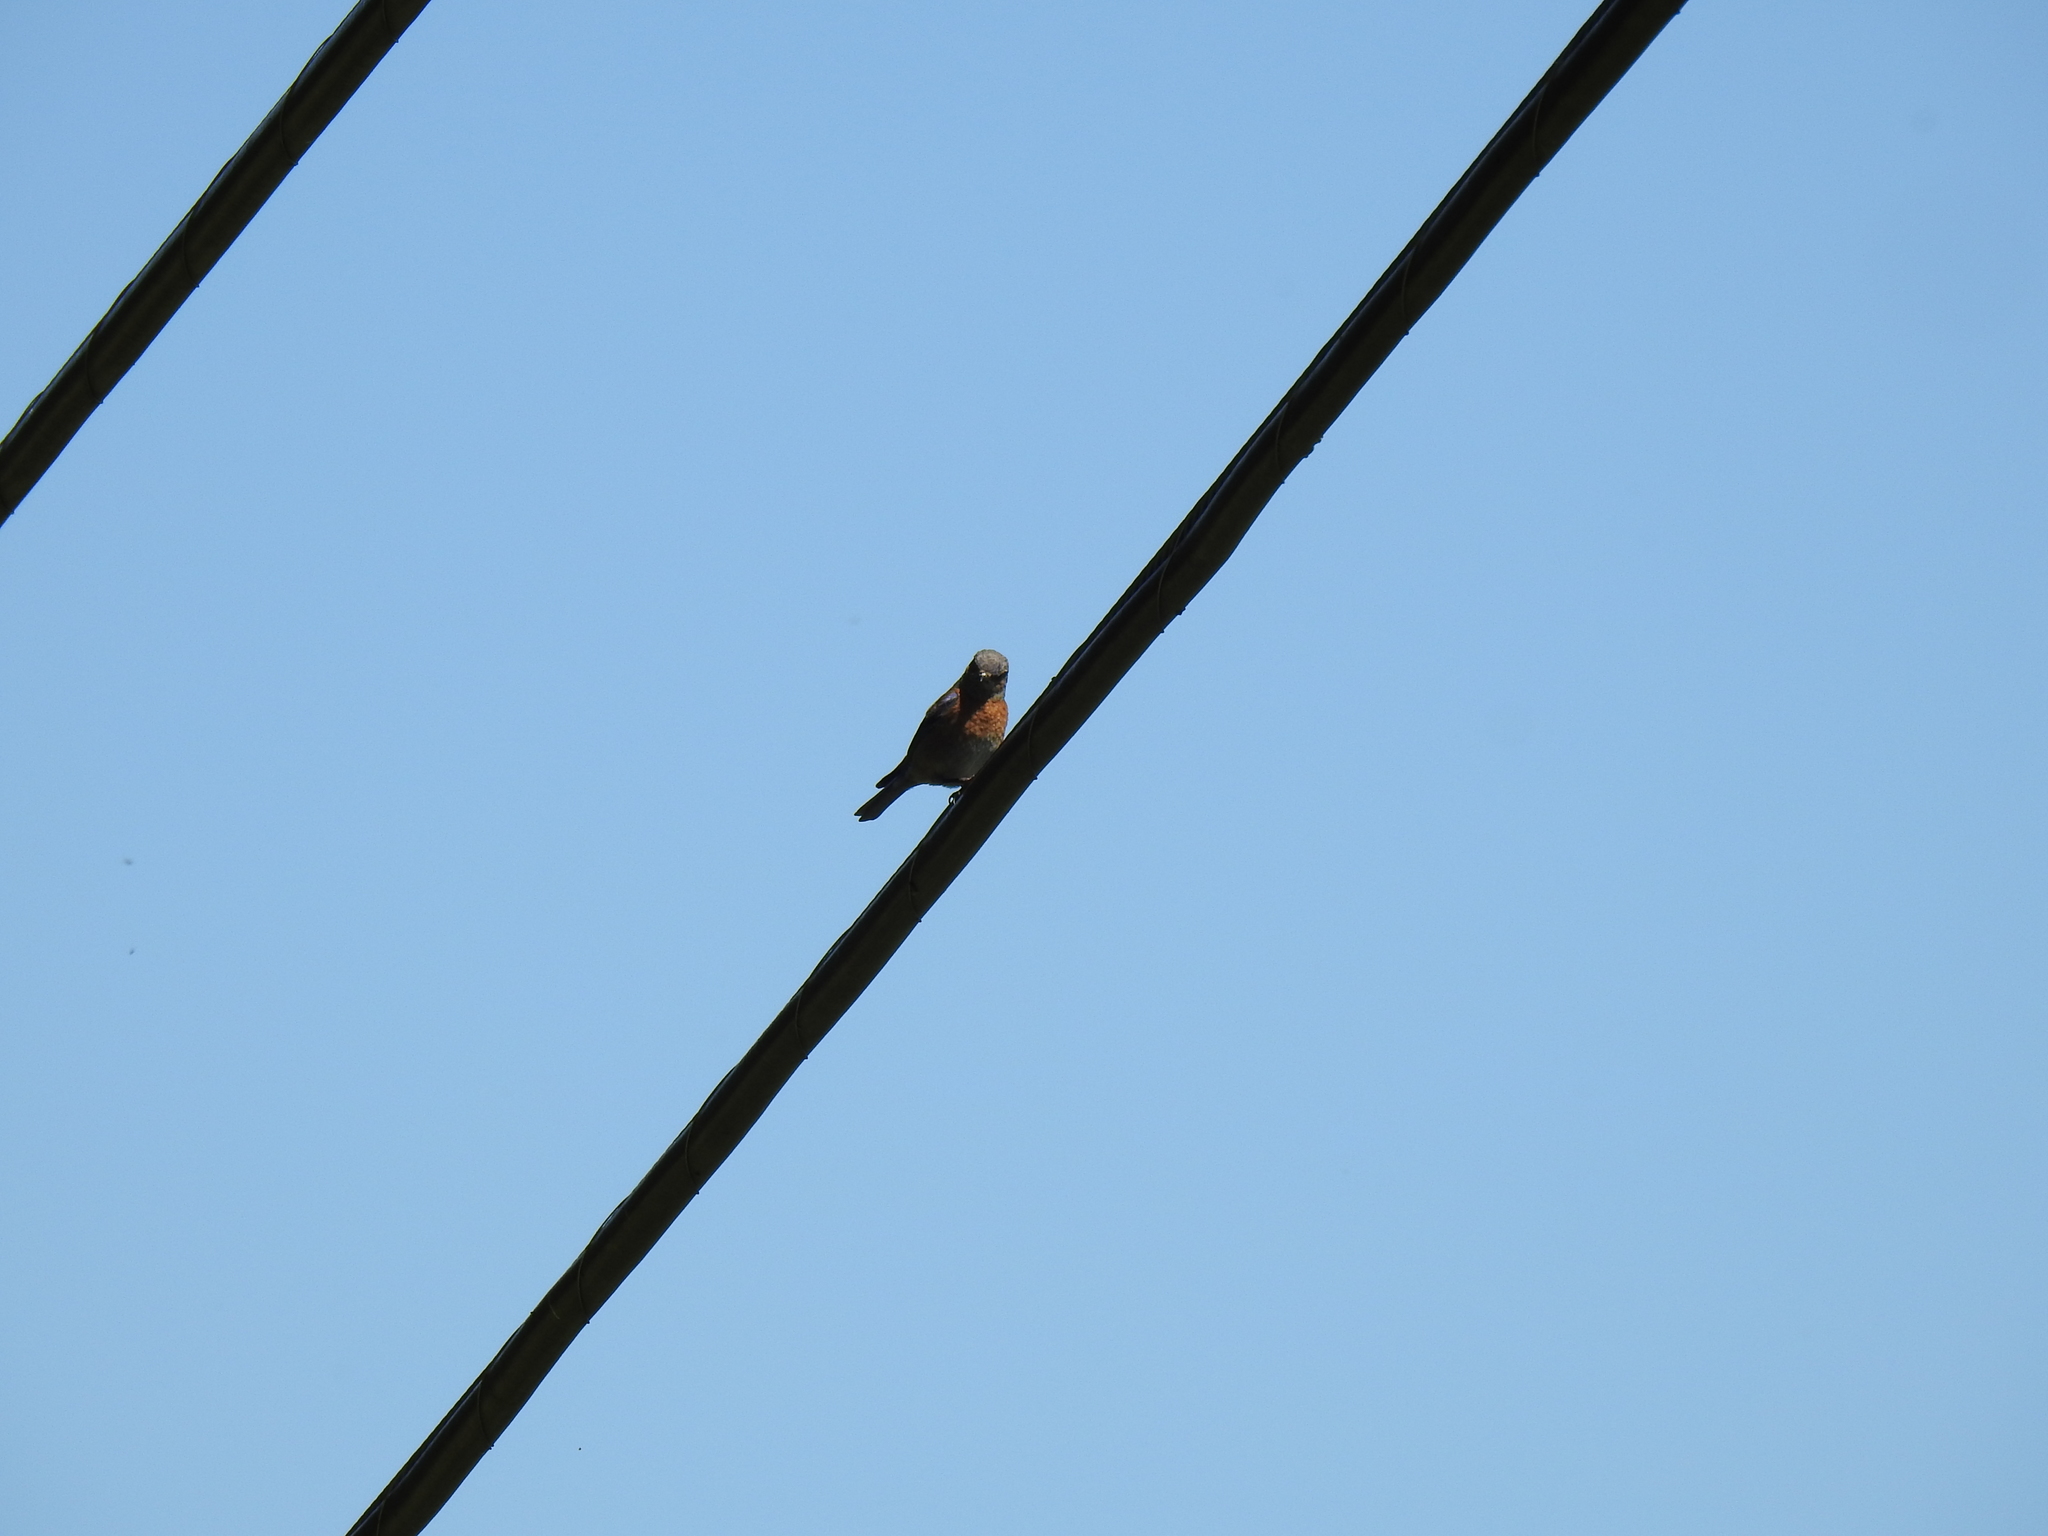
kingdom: Animalia
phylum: Chordata
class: Aves
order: Passeriformes
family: Turdidae
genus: Sialia
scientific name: Sialia mexicana
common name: Western bluebird
